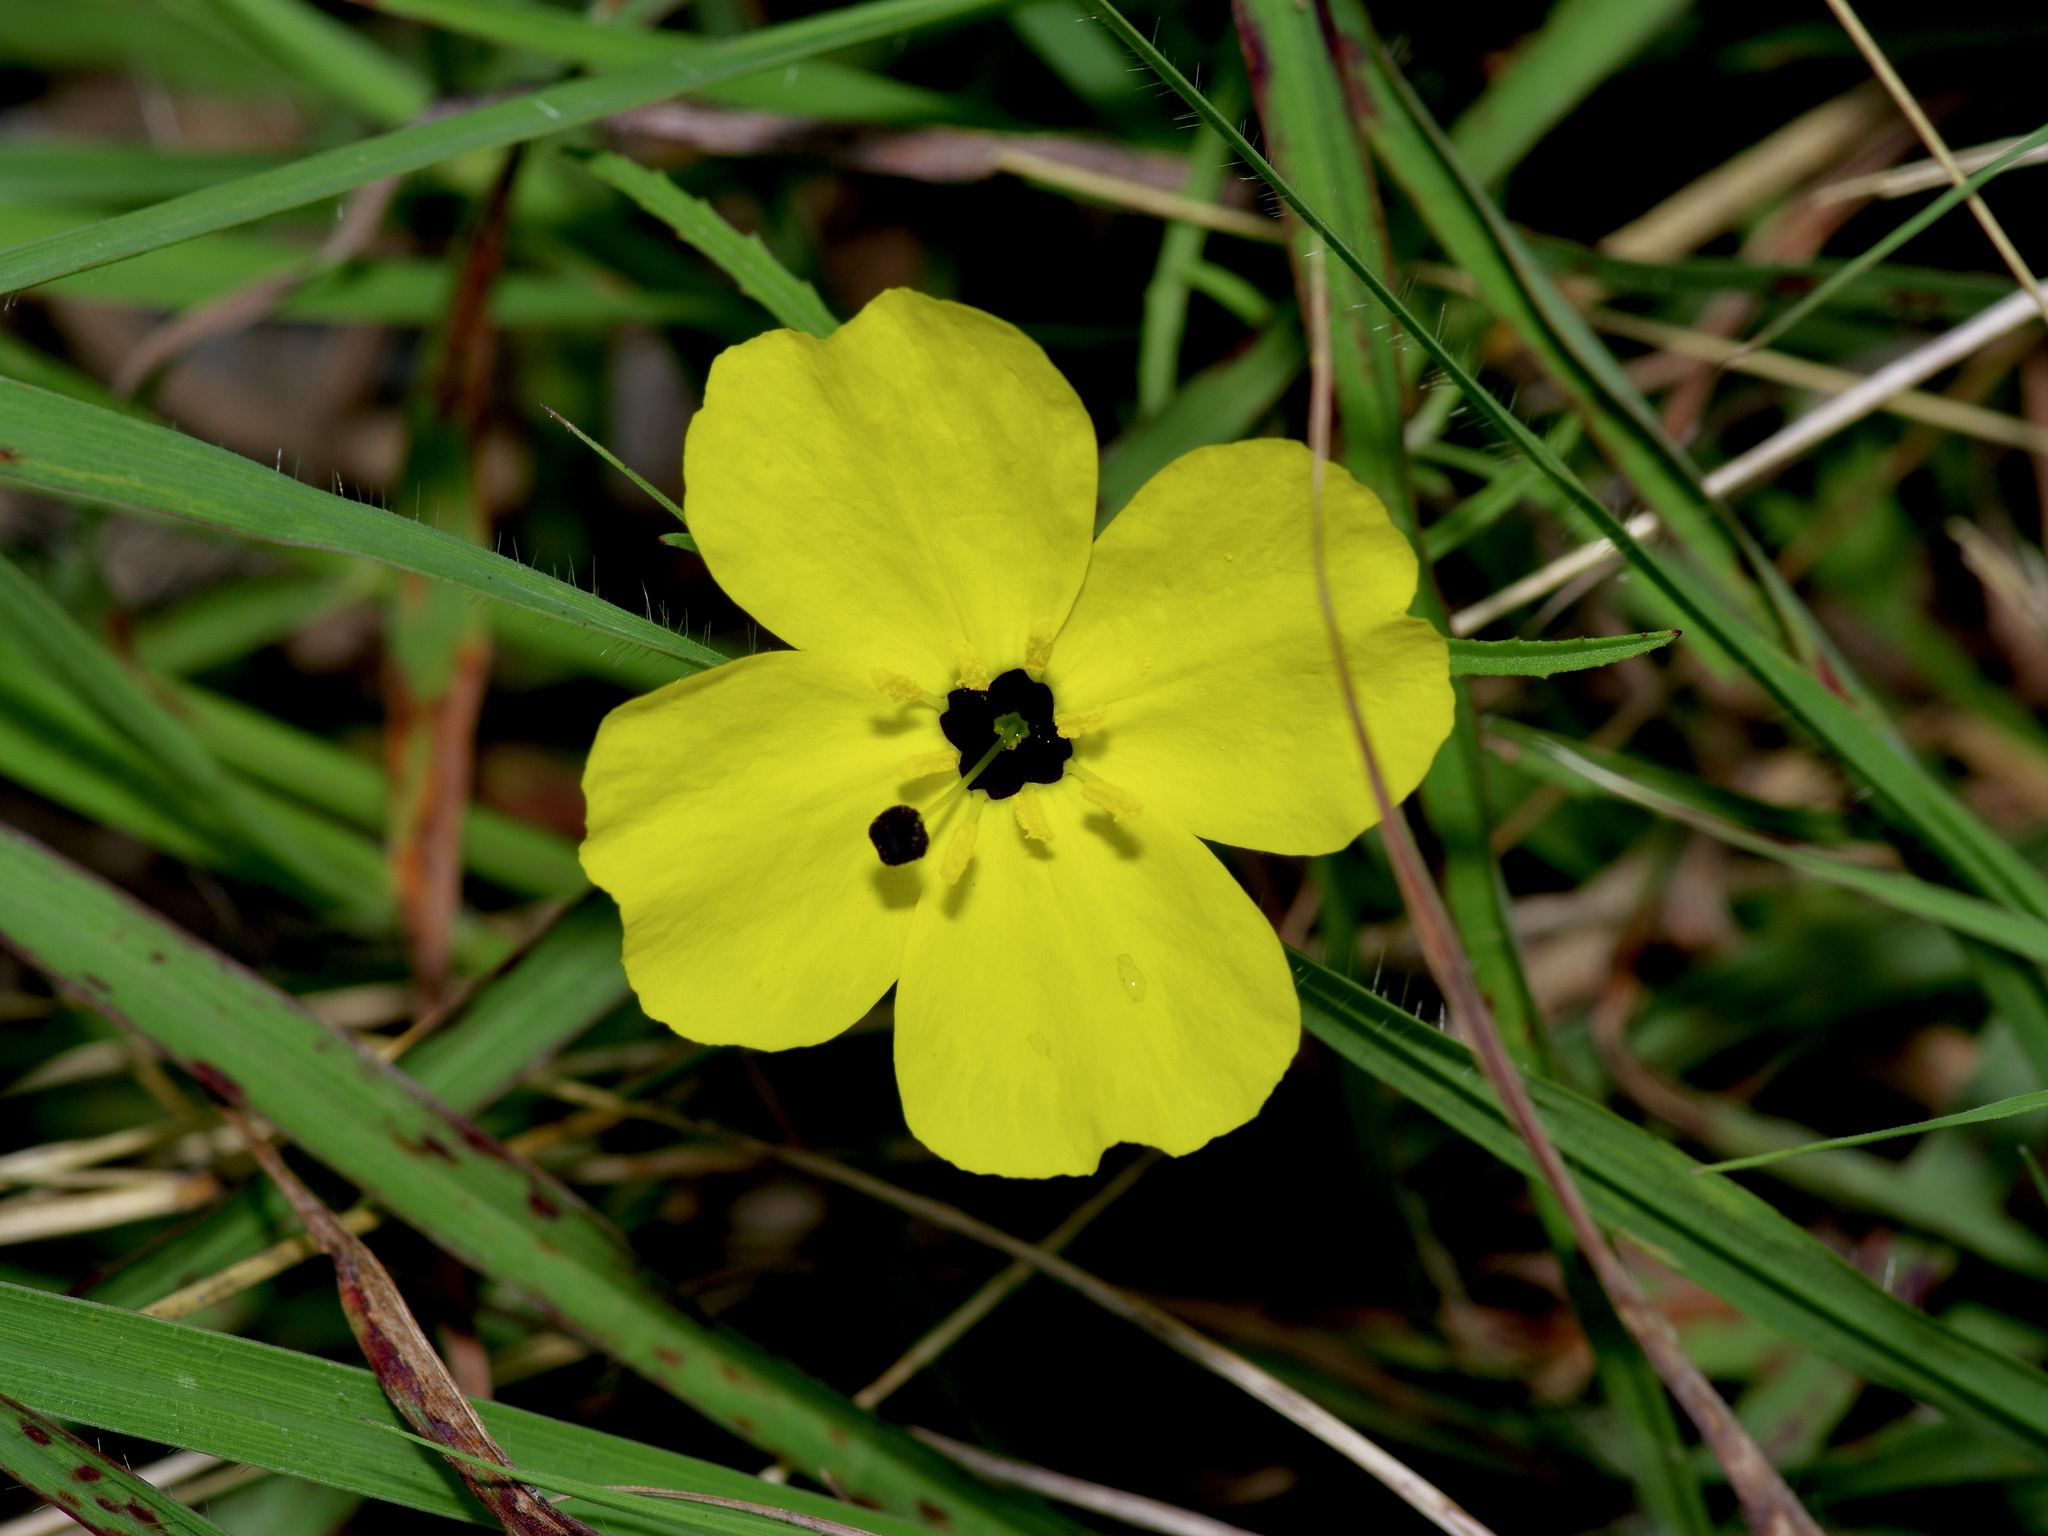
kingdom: Plantae
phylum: Tracheophyta
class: Magnoliopsida
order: Myrtales
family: Onagraceae
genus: Oenothera
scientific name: Oenothera
